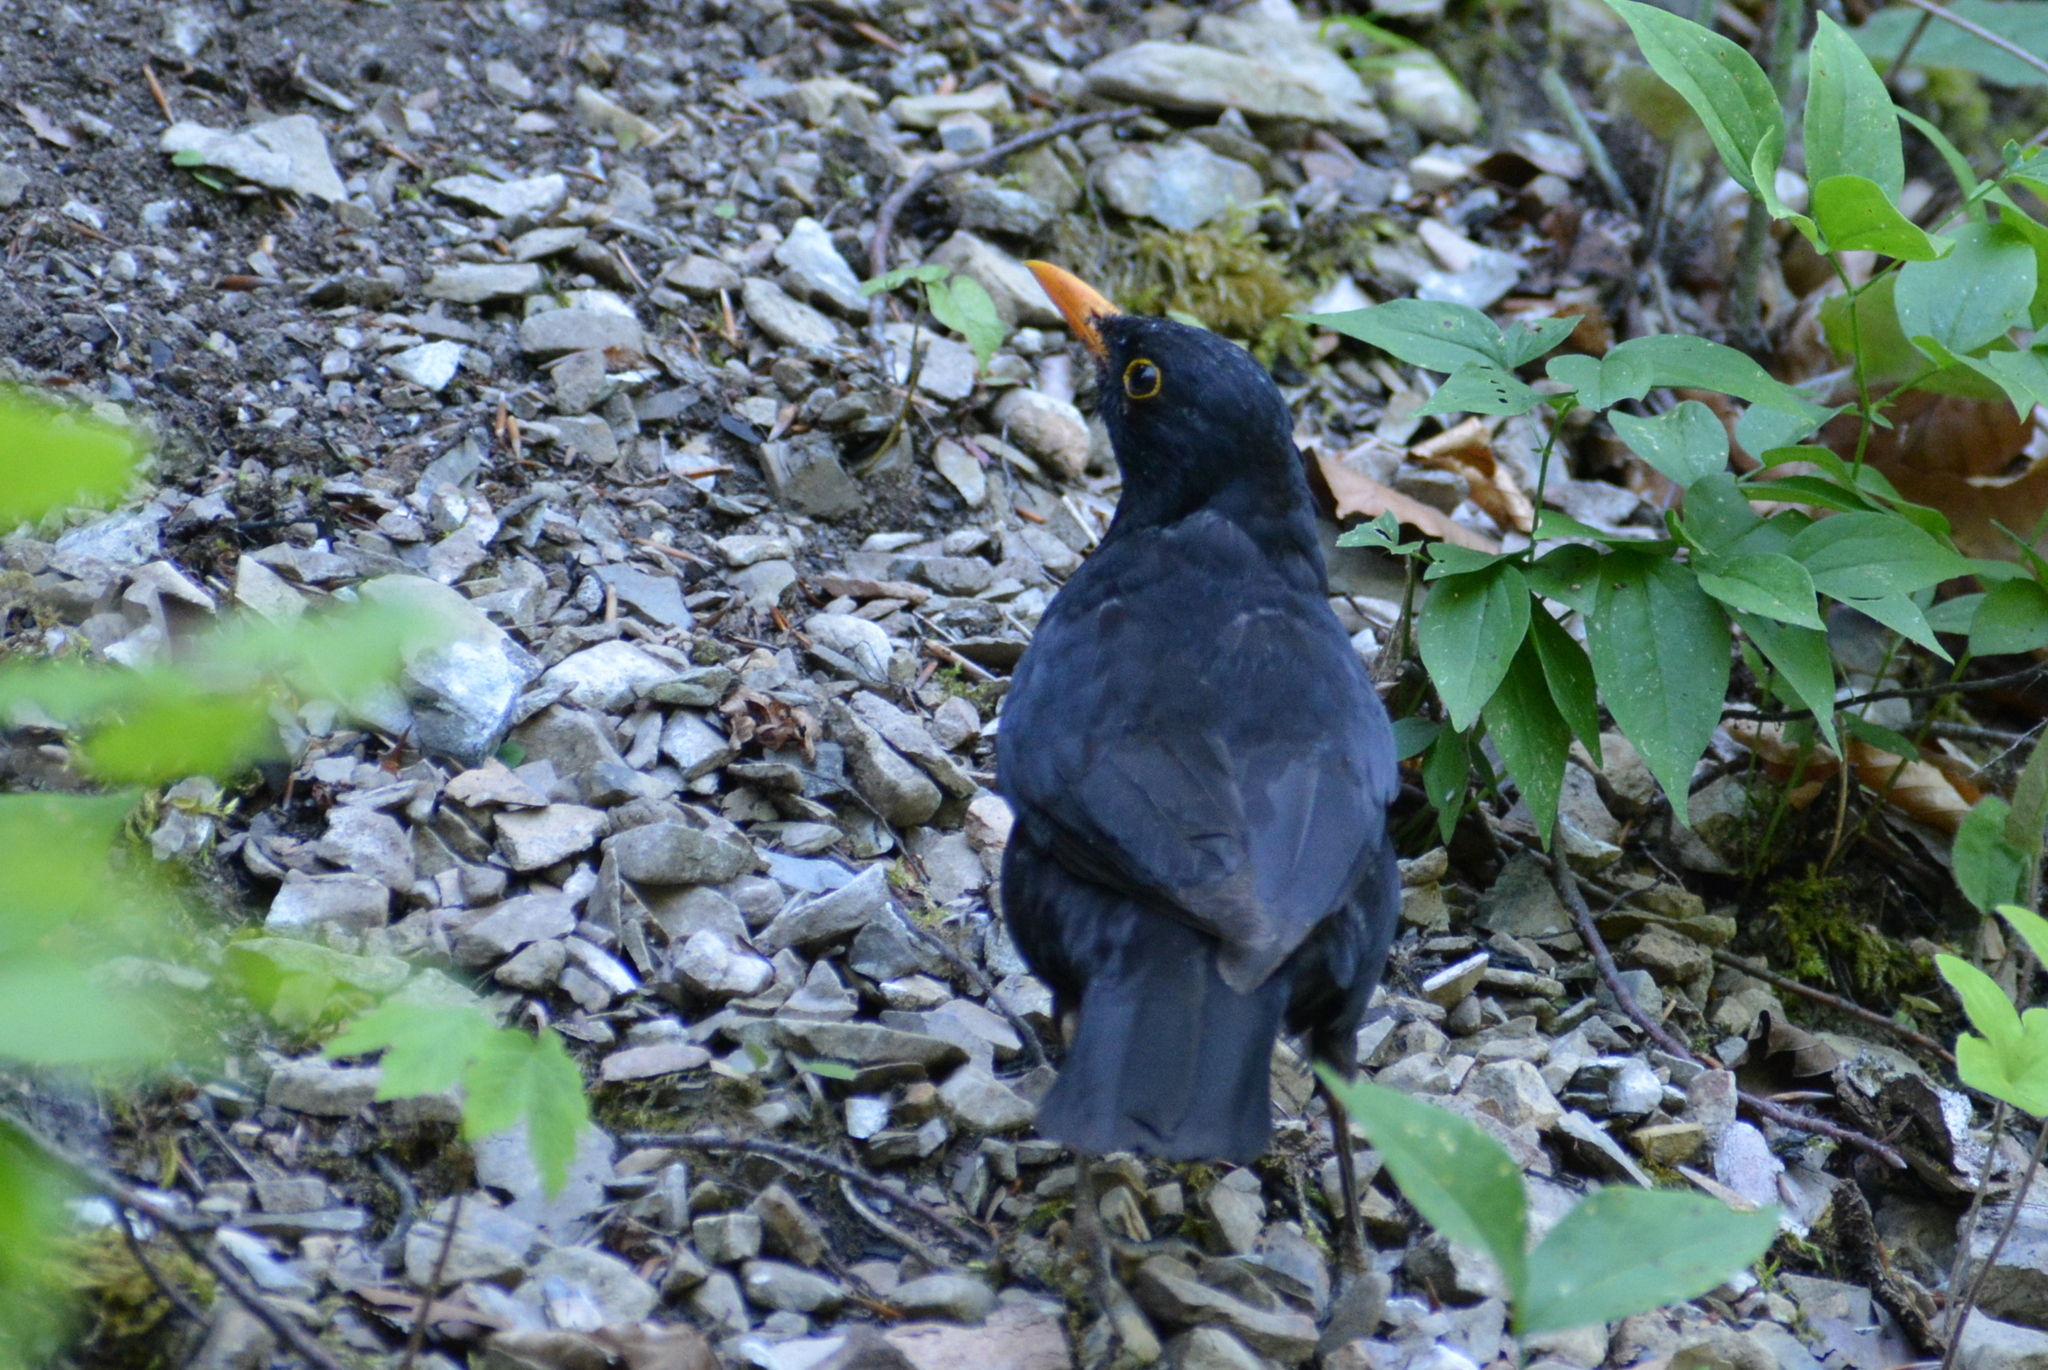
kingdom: Animalia
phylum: Chordata
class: Aves
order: Passeriformes
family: Turdidae
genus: Turdus
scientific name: Turdus merula
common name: Common blackbird
